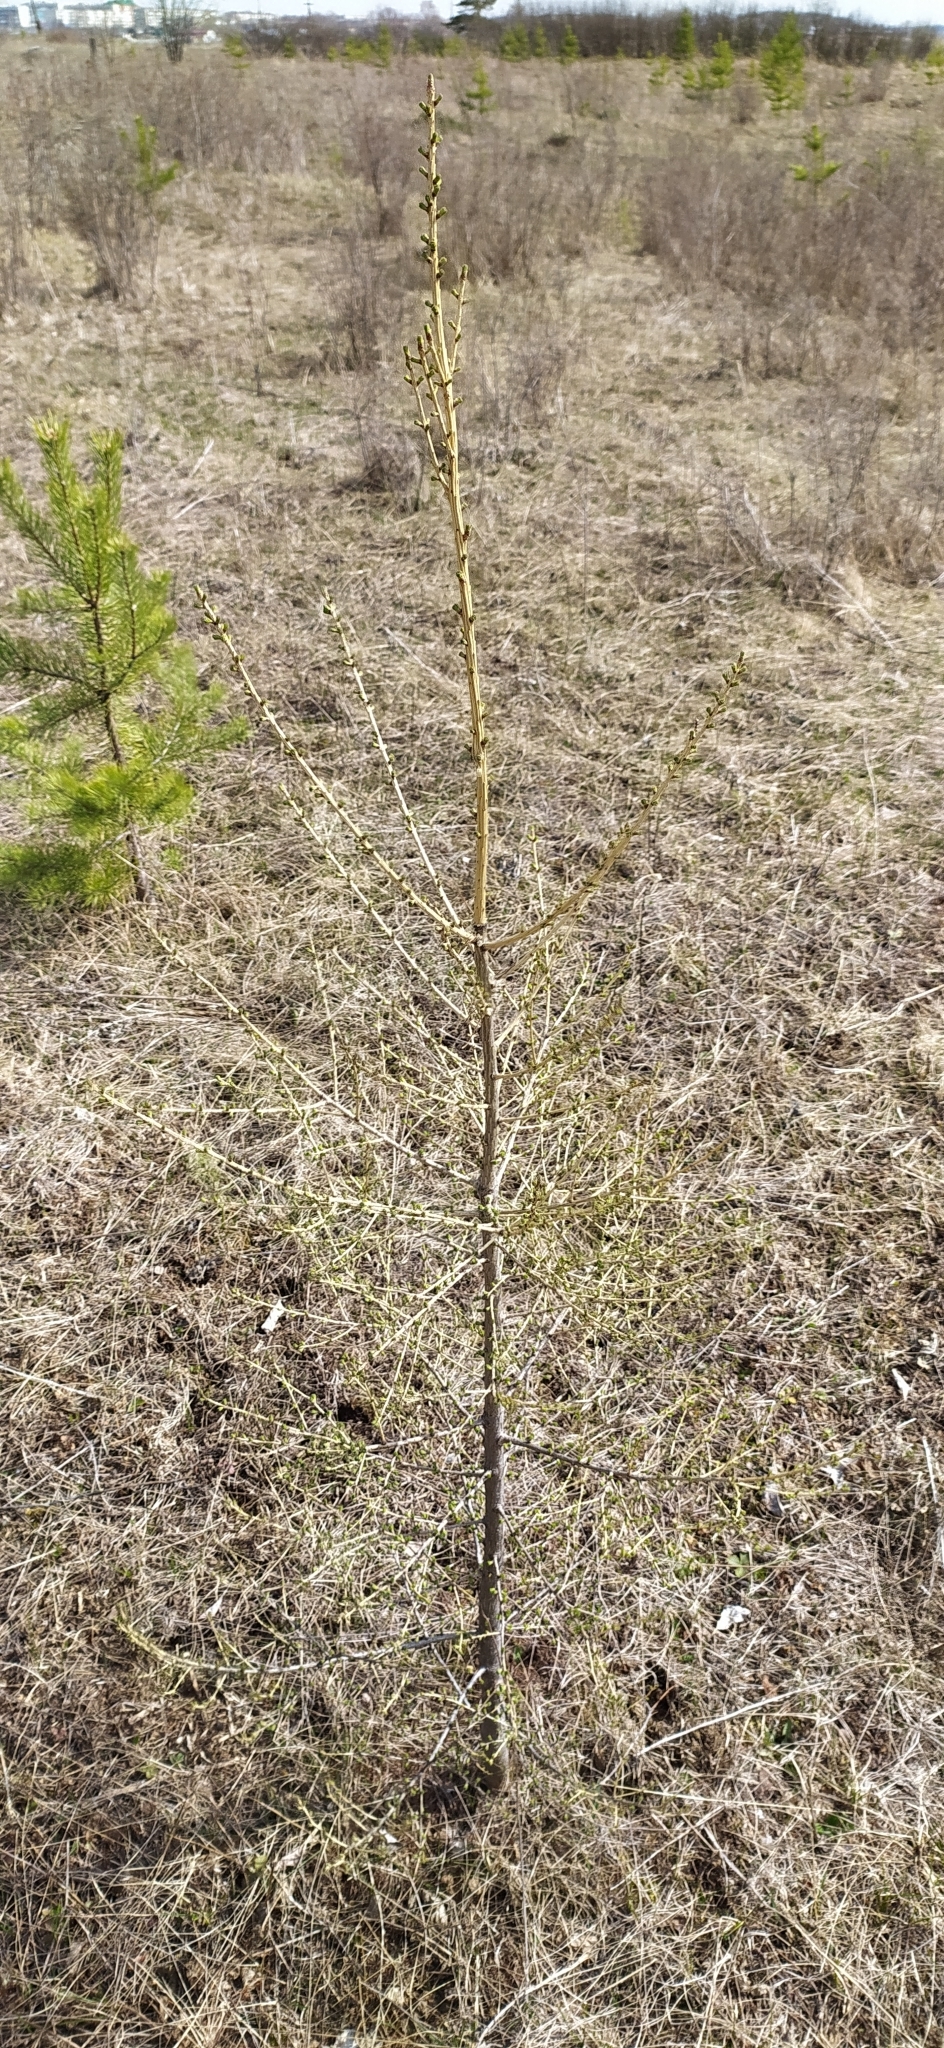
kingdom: Plantae
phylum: Tracheophyta
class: Pinopsida
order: Pinales
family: Pinaceae
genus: Larix
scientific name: Larix sibirica
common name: Siberian larch
